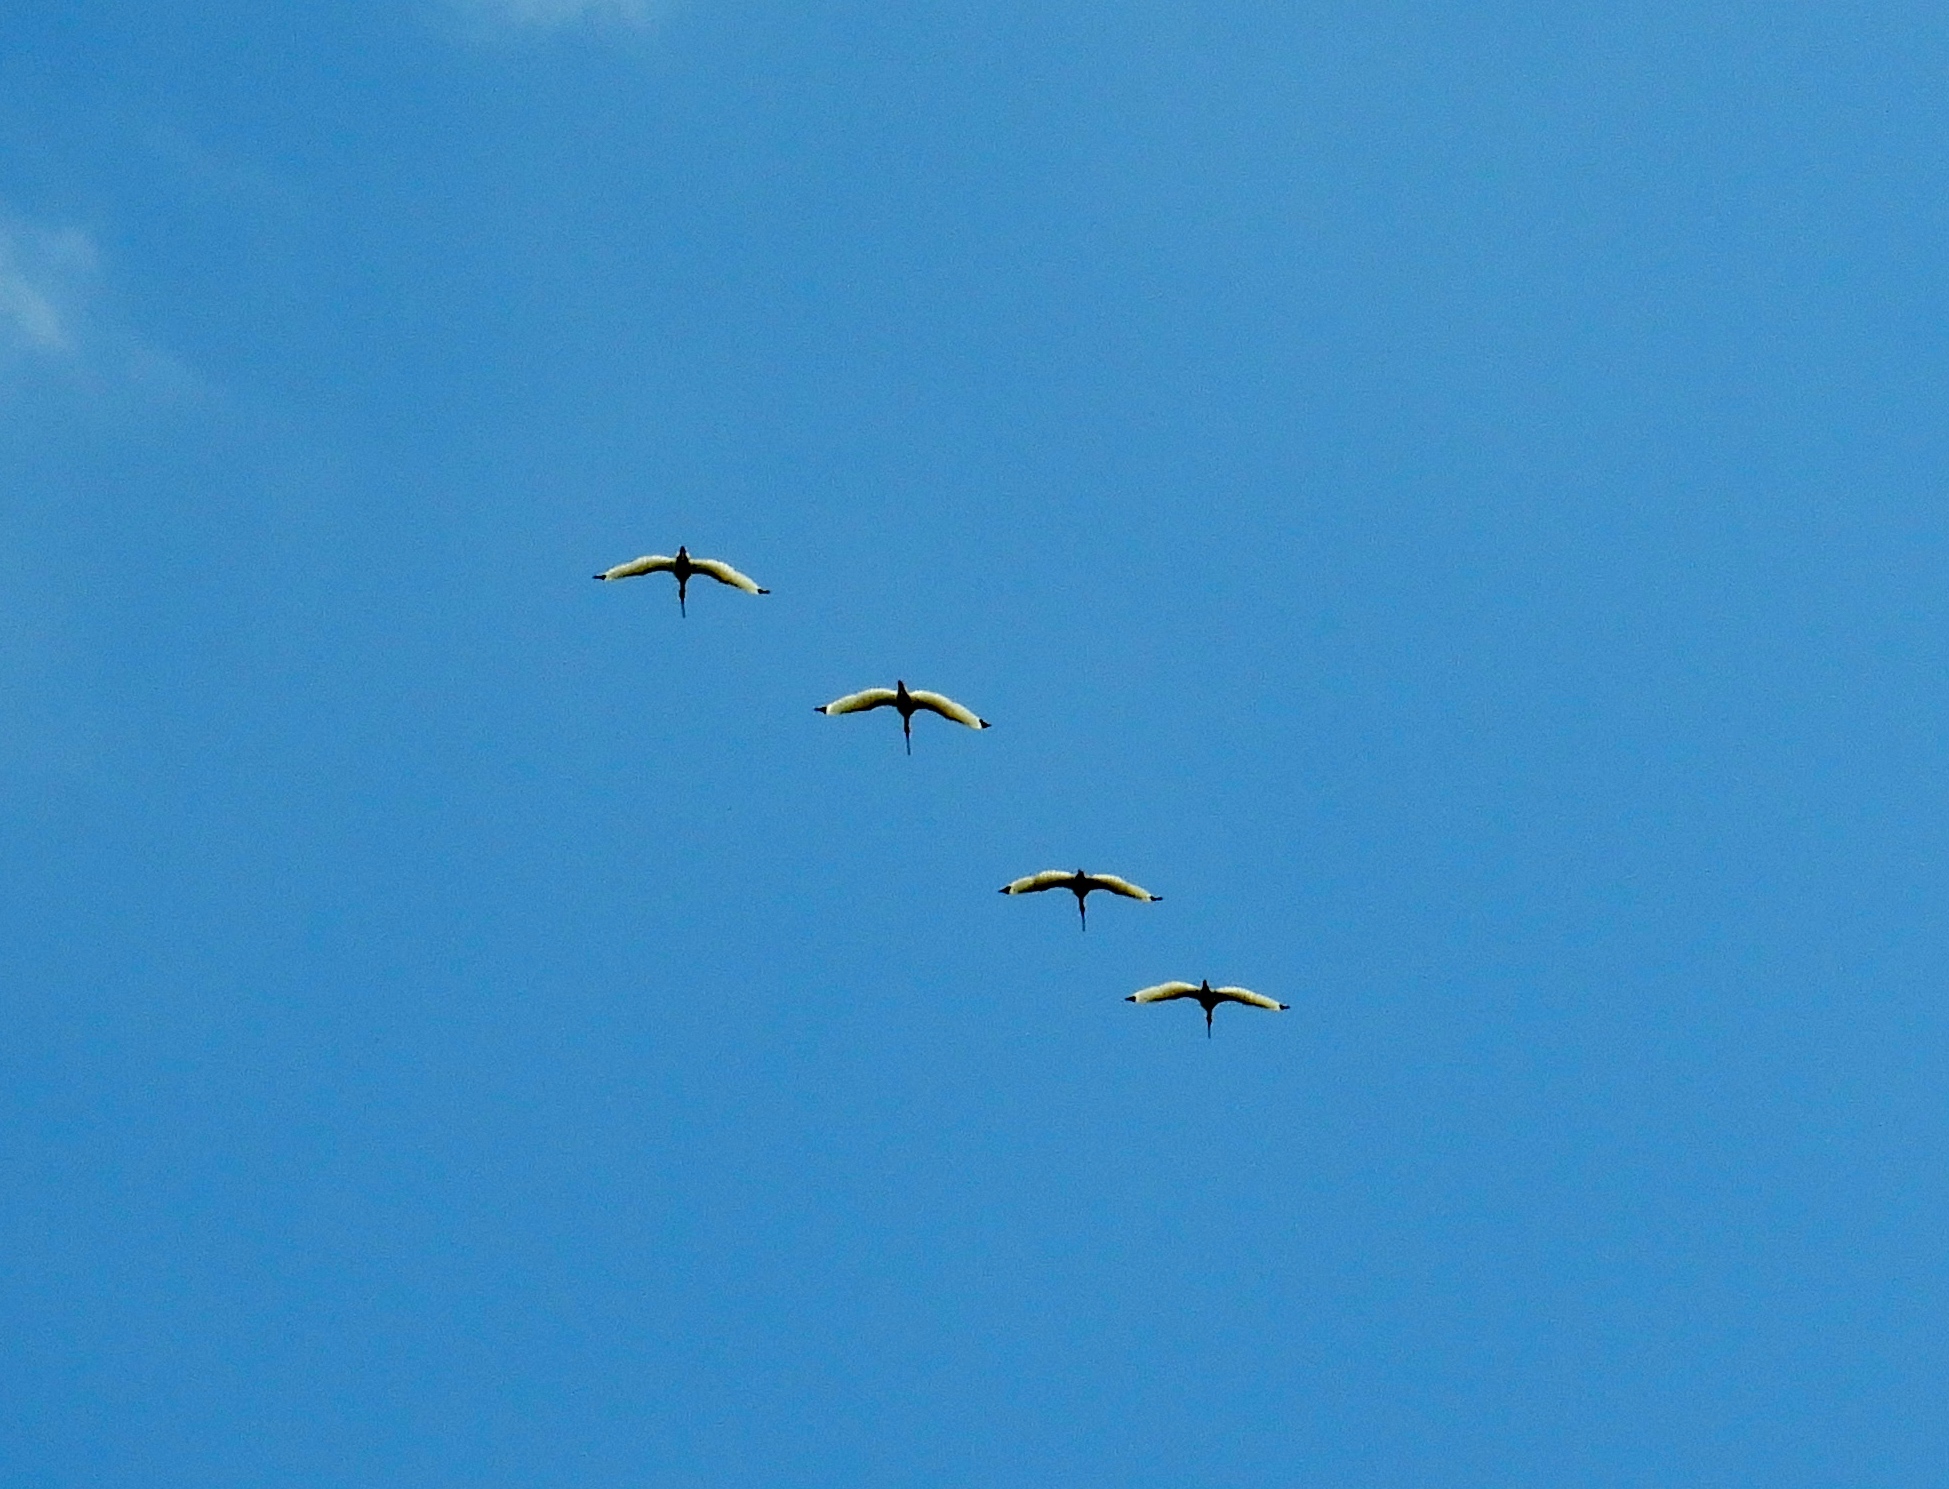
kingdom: Animalia
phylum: Chordata
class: Aves
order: Pelecaniformes
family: Threskiornithidae
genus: Eudocimus
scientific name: Eudocimus albus
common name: White ibis
